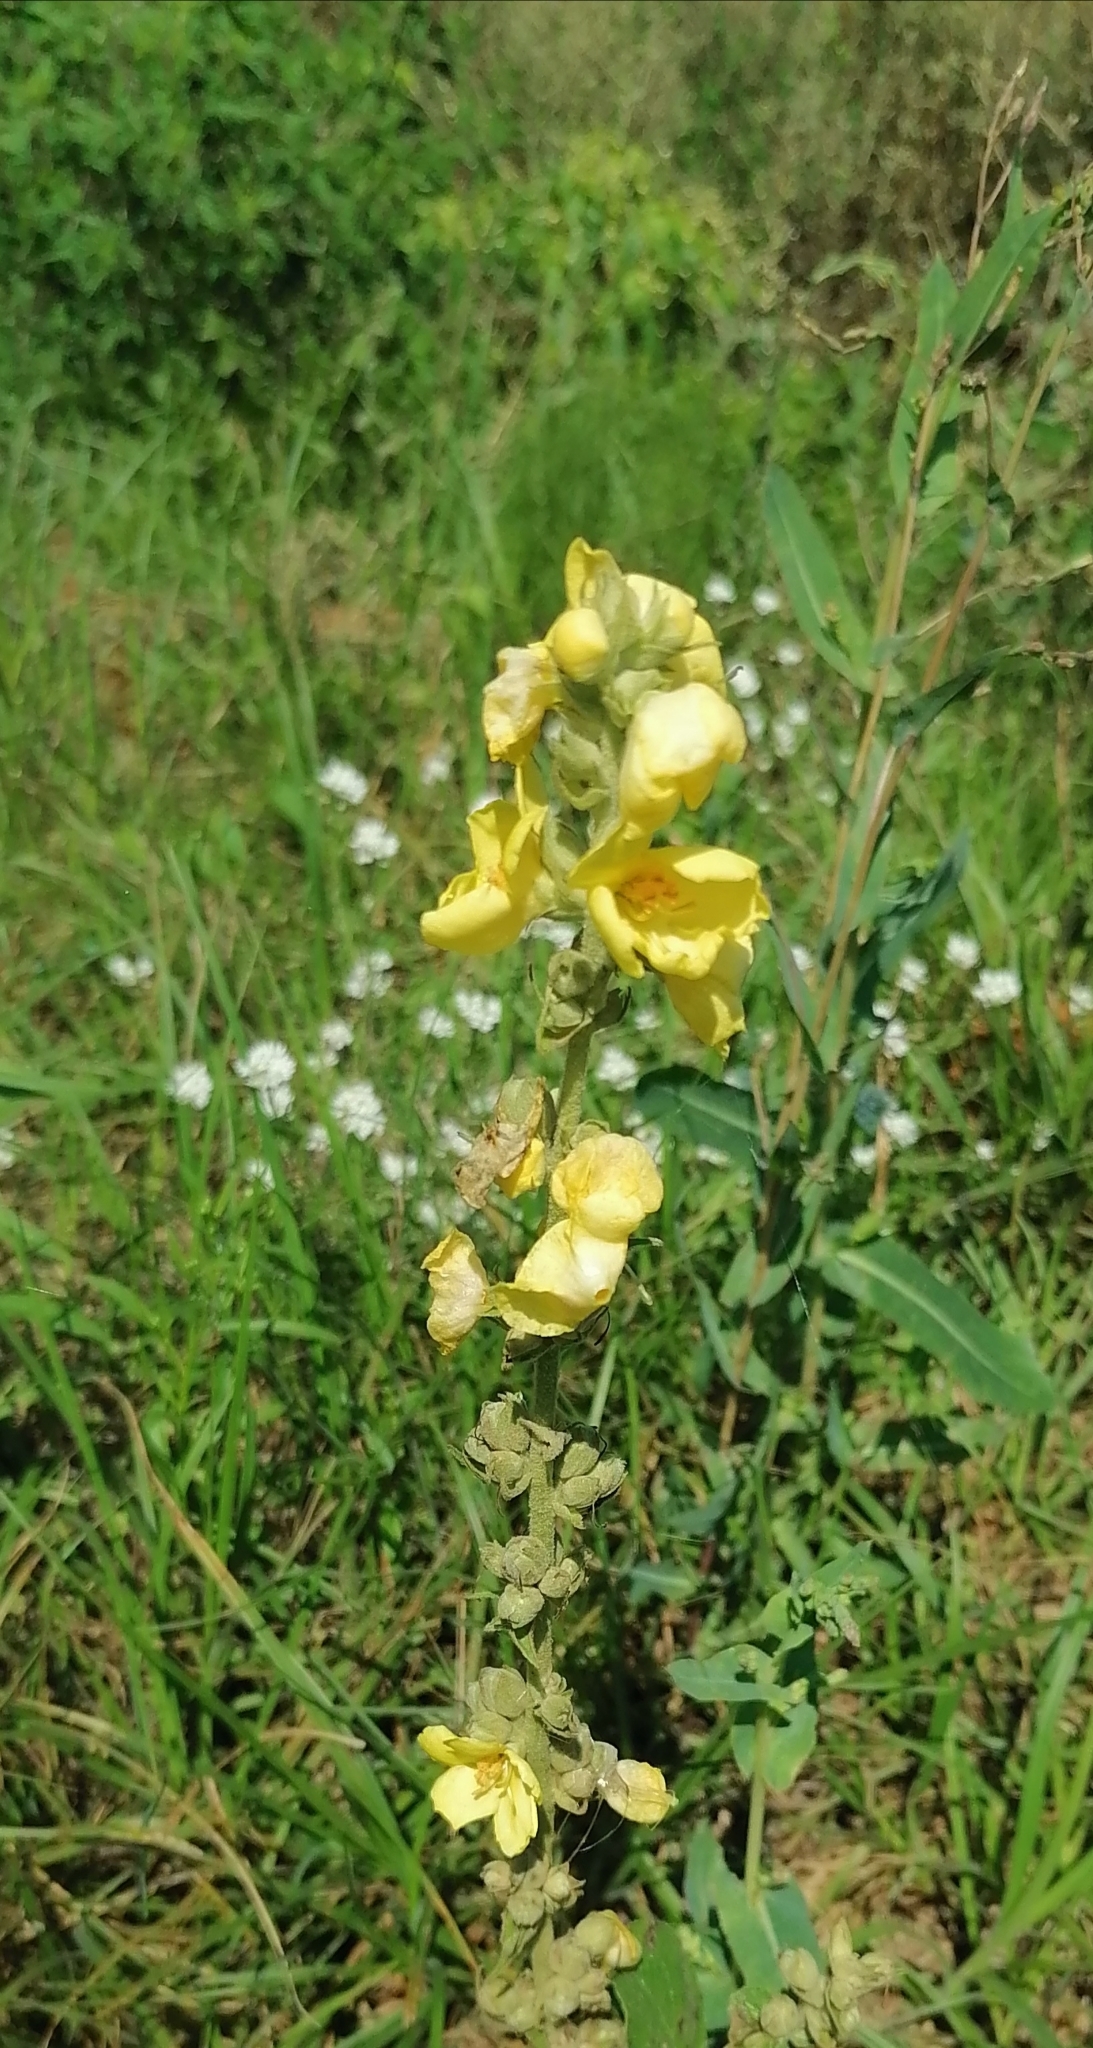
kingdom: Plantae
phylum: Tracheophyta
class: Magnoliopsida
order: Lamiales
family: Scrophulariaceae
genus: Verbascum
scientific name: Verbascum phlomoides
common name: Orange mullein
